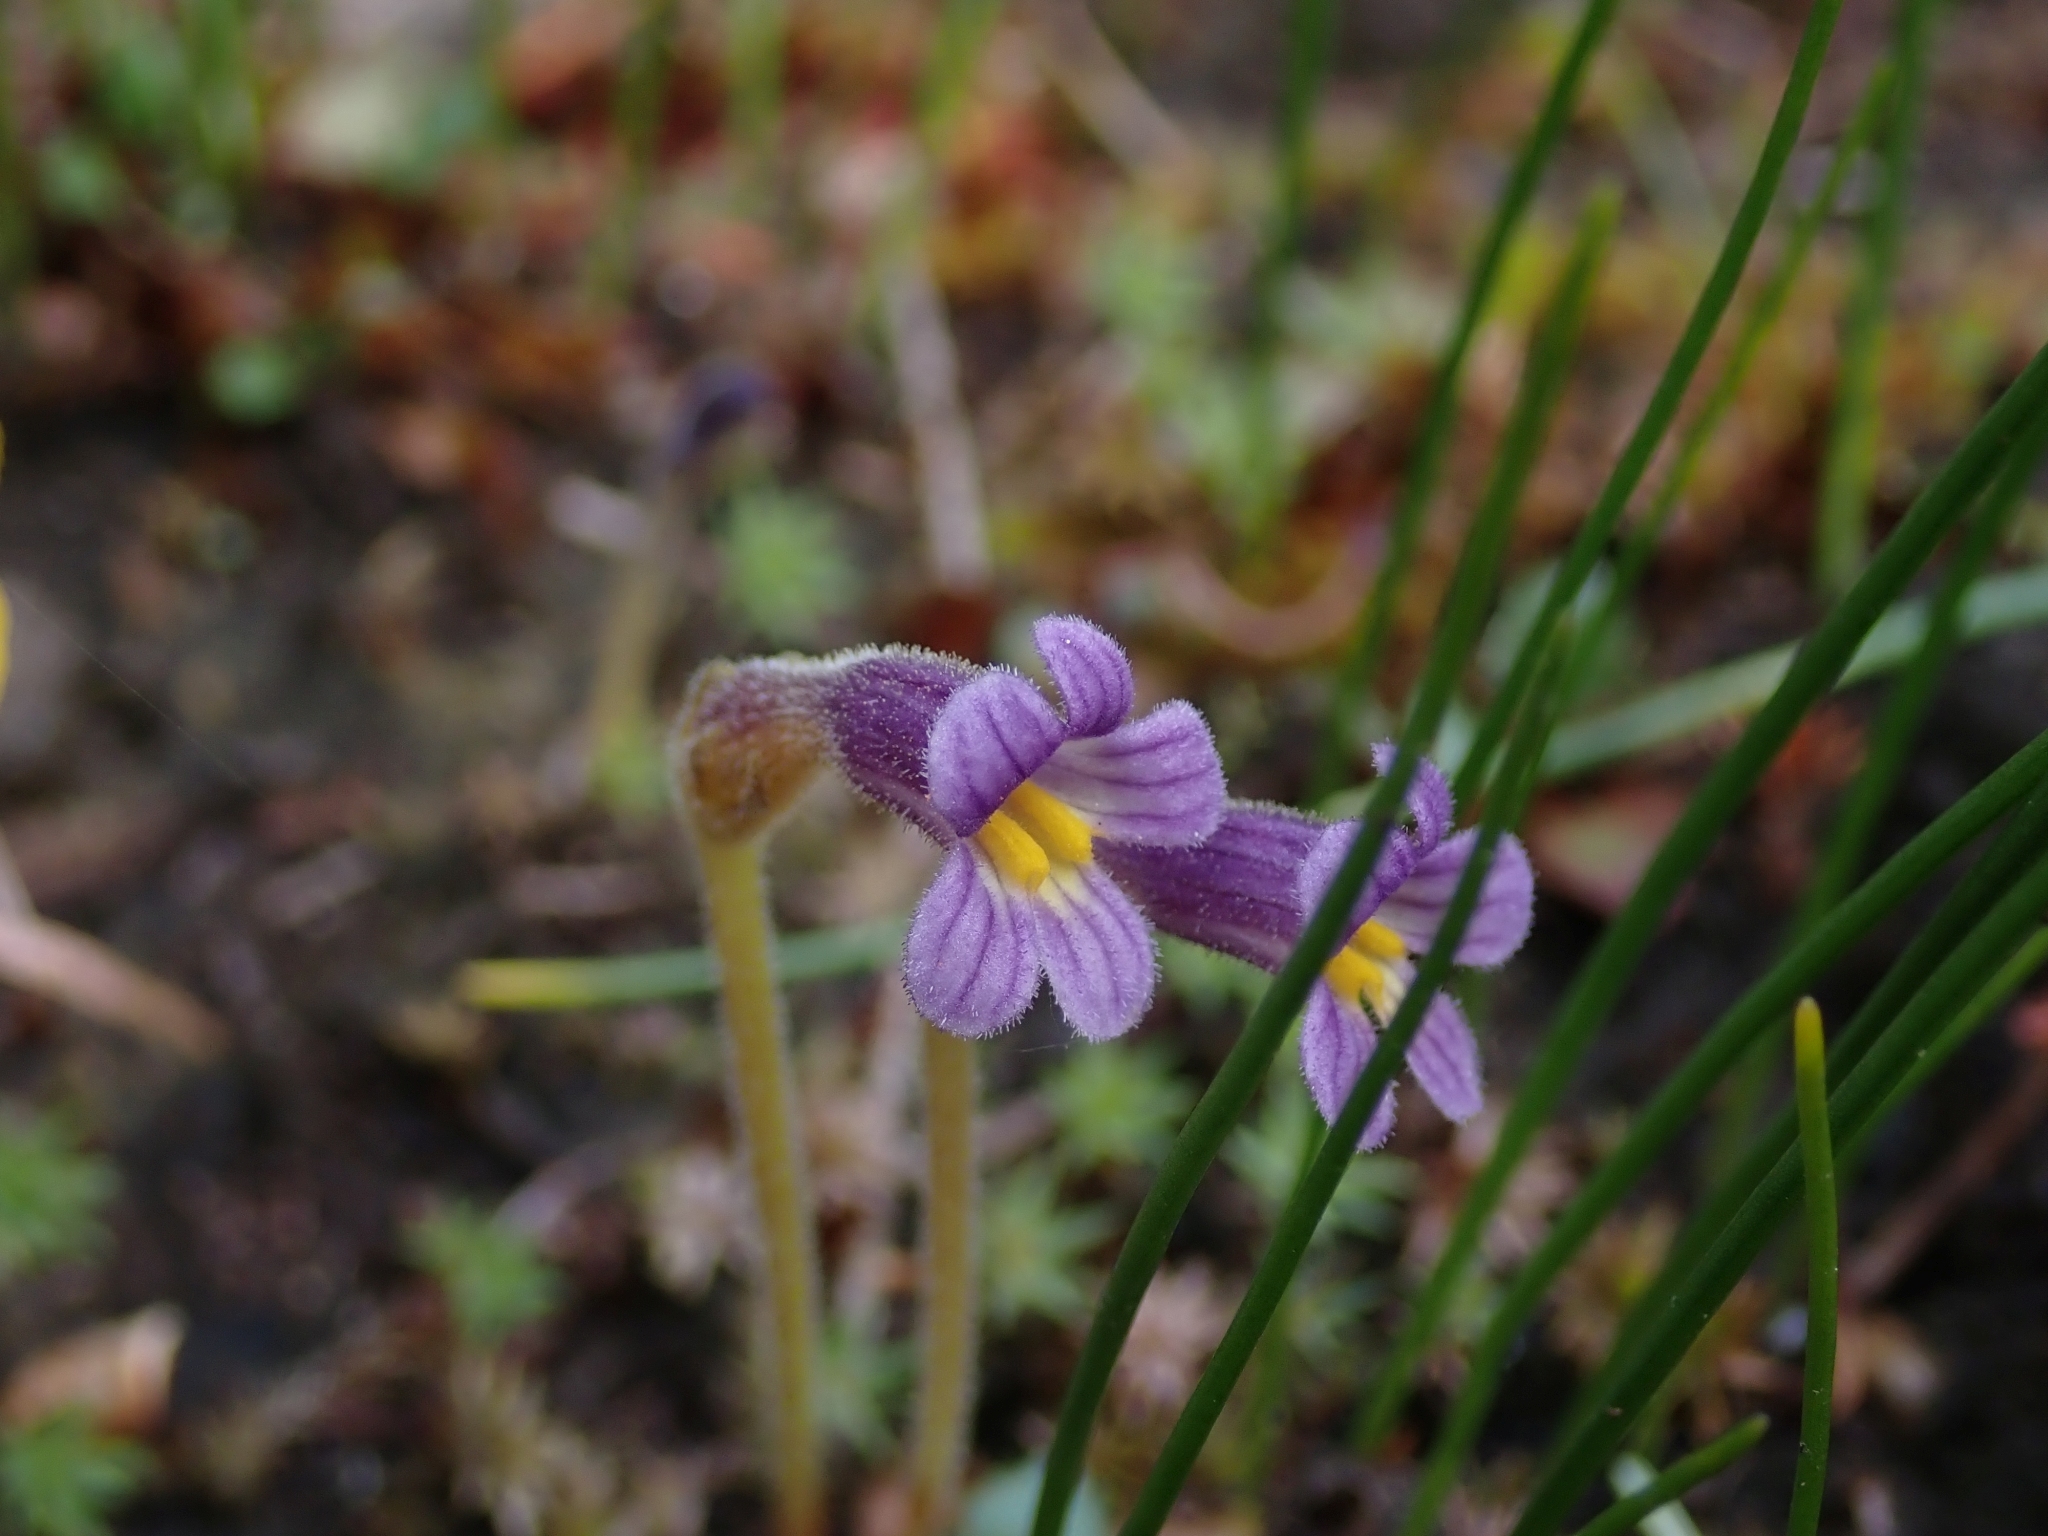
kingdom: Plantae
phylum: Tracheophyta
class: Magnoliopsida
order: Lamiales
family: Orobanchaceae
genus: Aphyllon
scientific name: Aphyllon uniflorum
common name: One-flowered broomrape
